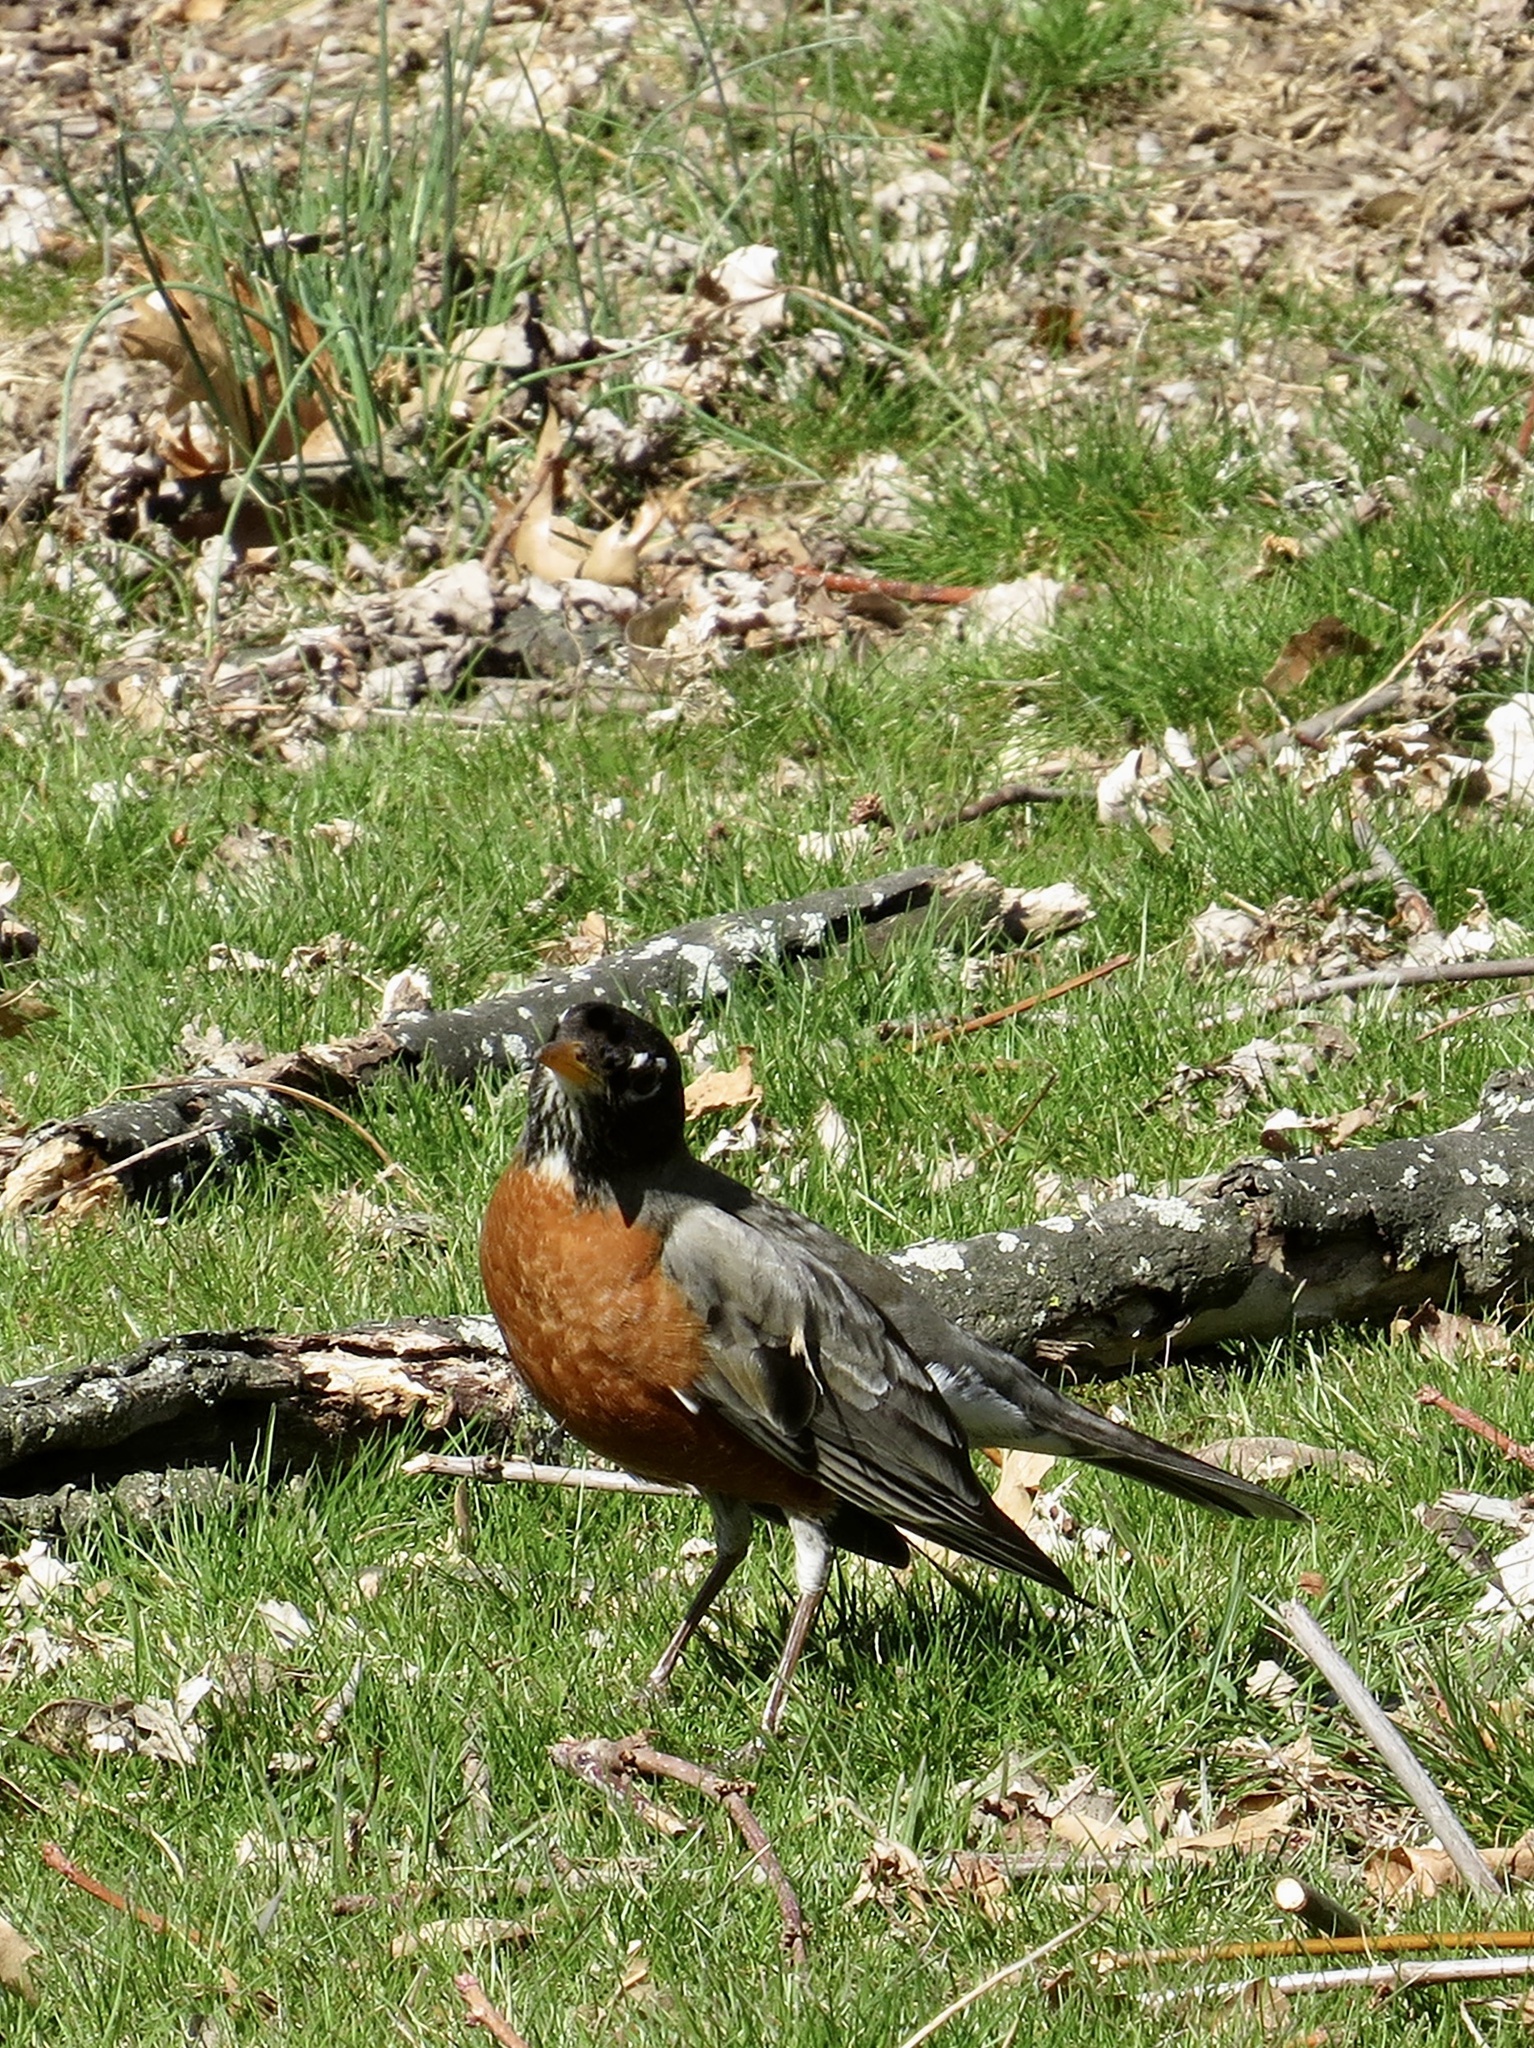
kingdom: Animalia
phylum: Chordata
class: Aves
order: Passeriformes
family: Turdidae
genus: Turdus
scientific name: Turdus migratorius
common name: American robin
